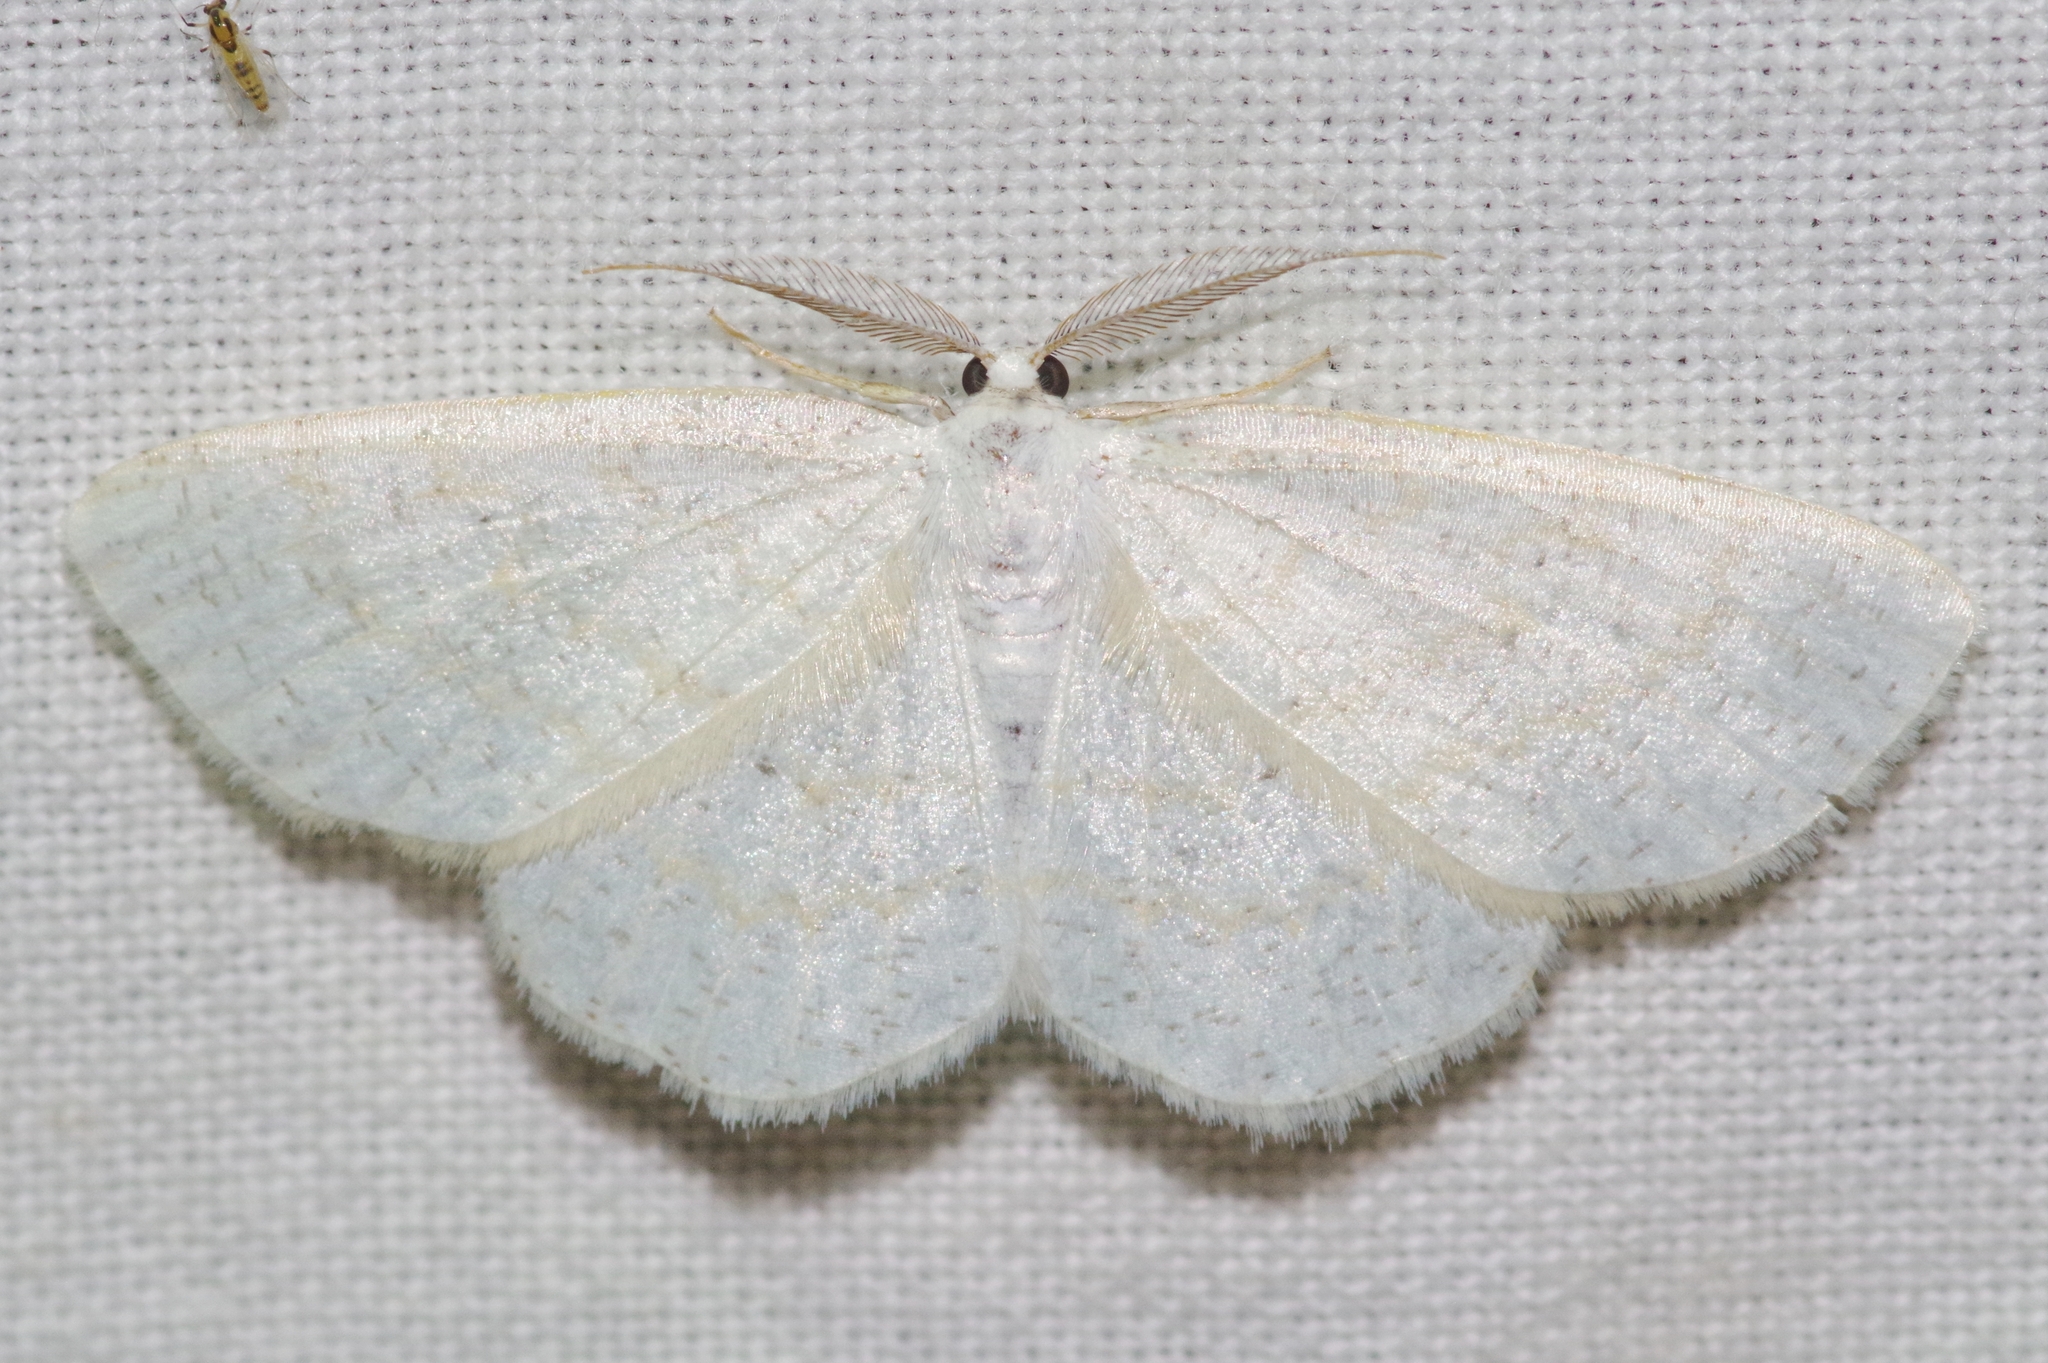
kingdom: Animalia
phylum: Arthropoda
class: Insecta
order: Lepidoptera
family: Geometridae
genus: Cabera
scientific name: Cabera purus
